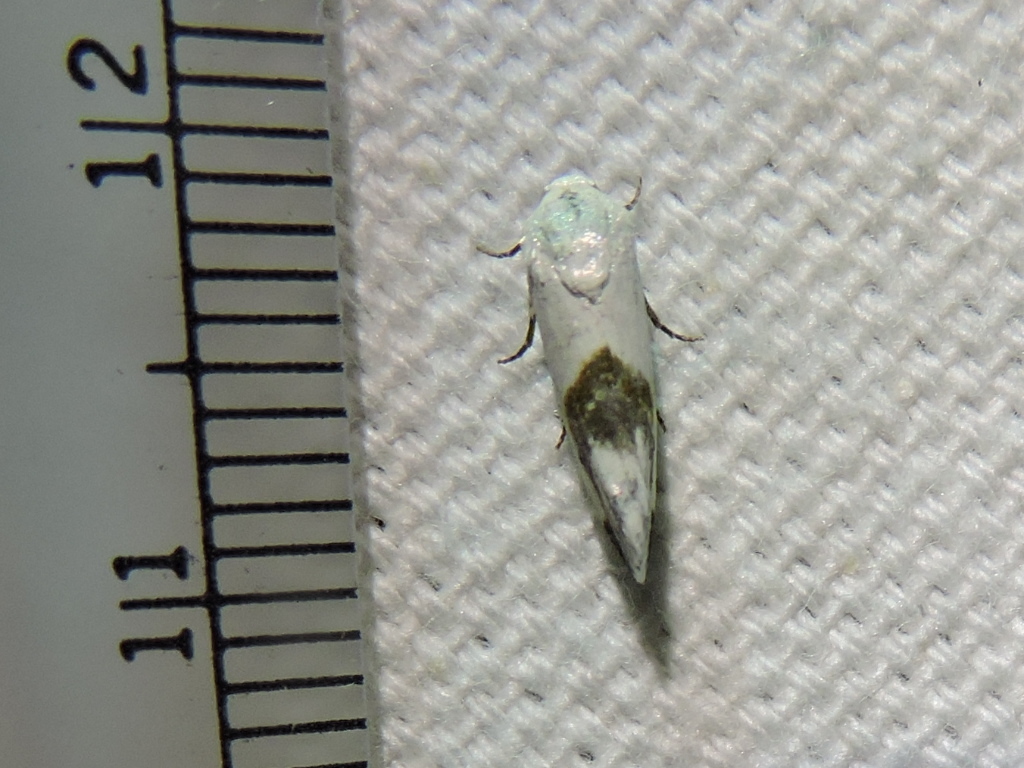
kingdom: Animalia
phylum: Arthropoda
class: Insecta
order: Lepidoptera
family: Noctuidae
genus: Acontia
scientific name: Acontia dorneri
